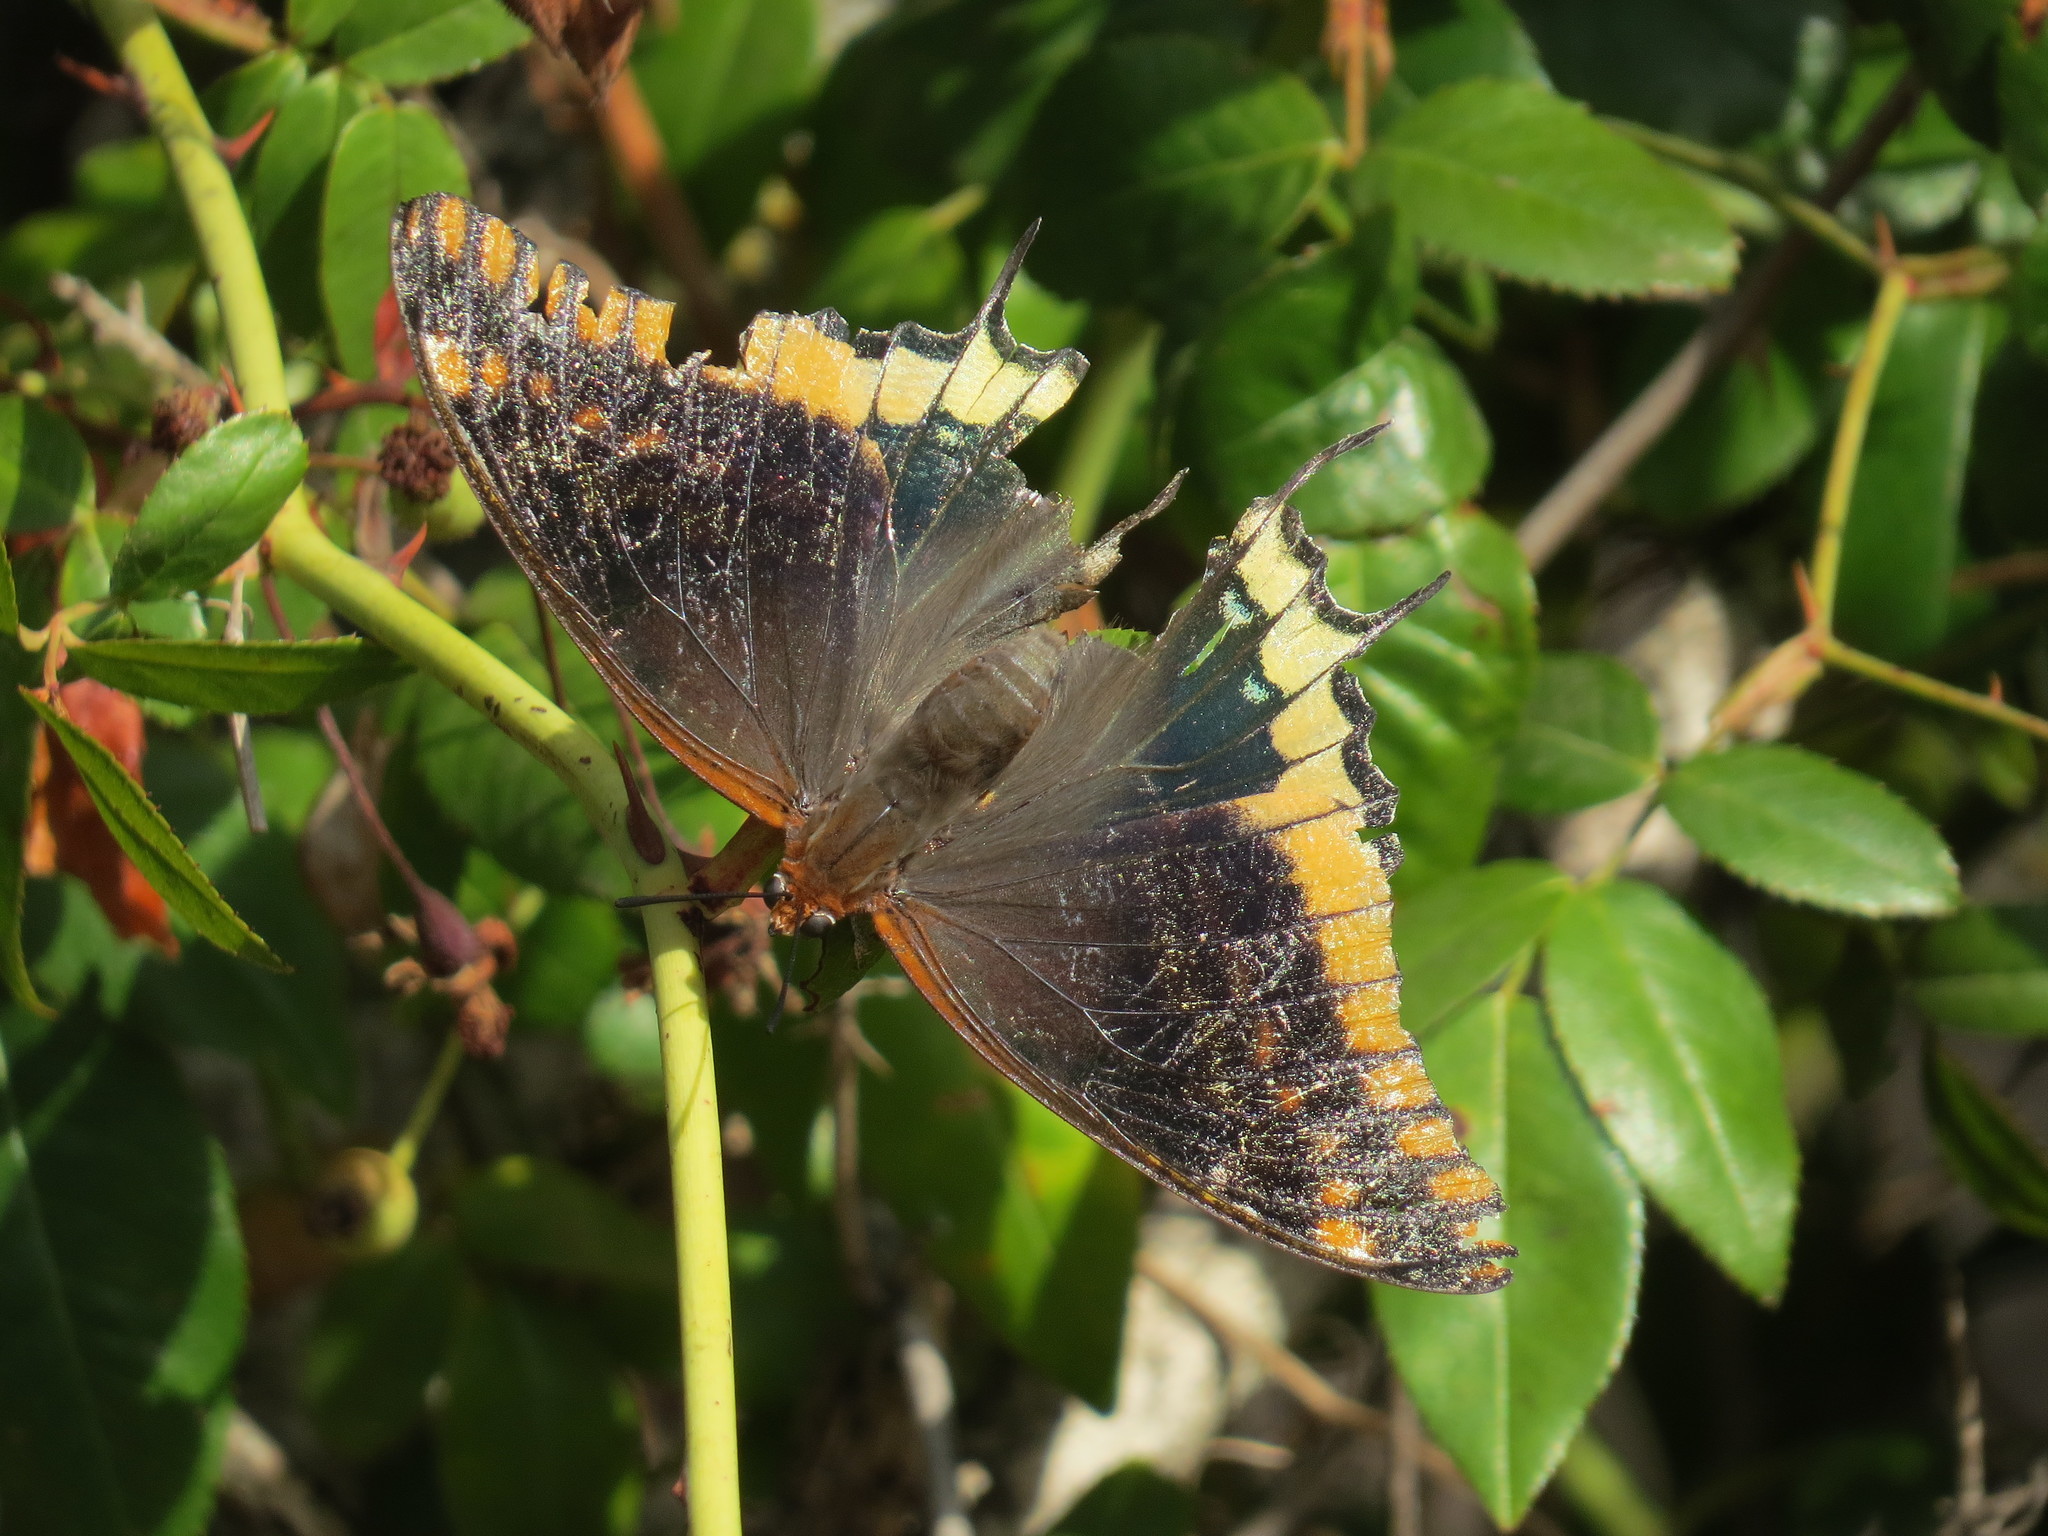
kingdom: Animalia
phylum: Arthropoda
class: Insecta
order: Lepidoptera
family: Nymphalidae
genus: Charaxes
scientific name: Charaxes jasius
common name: Two tailed pasha
